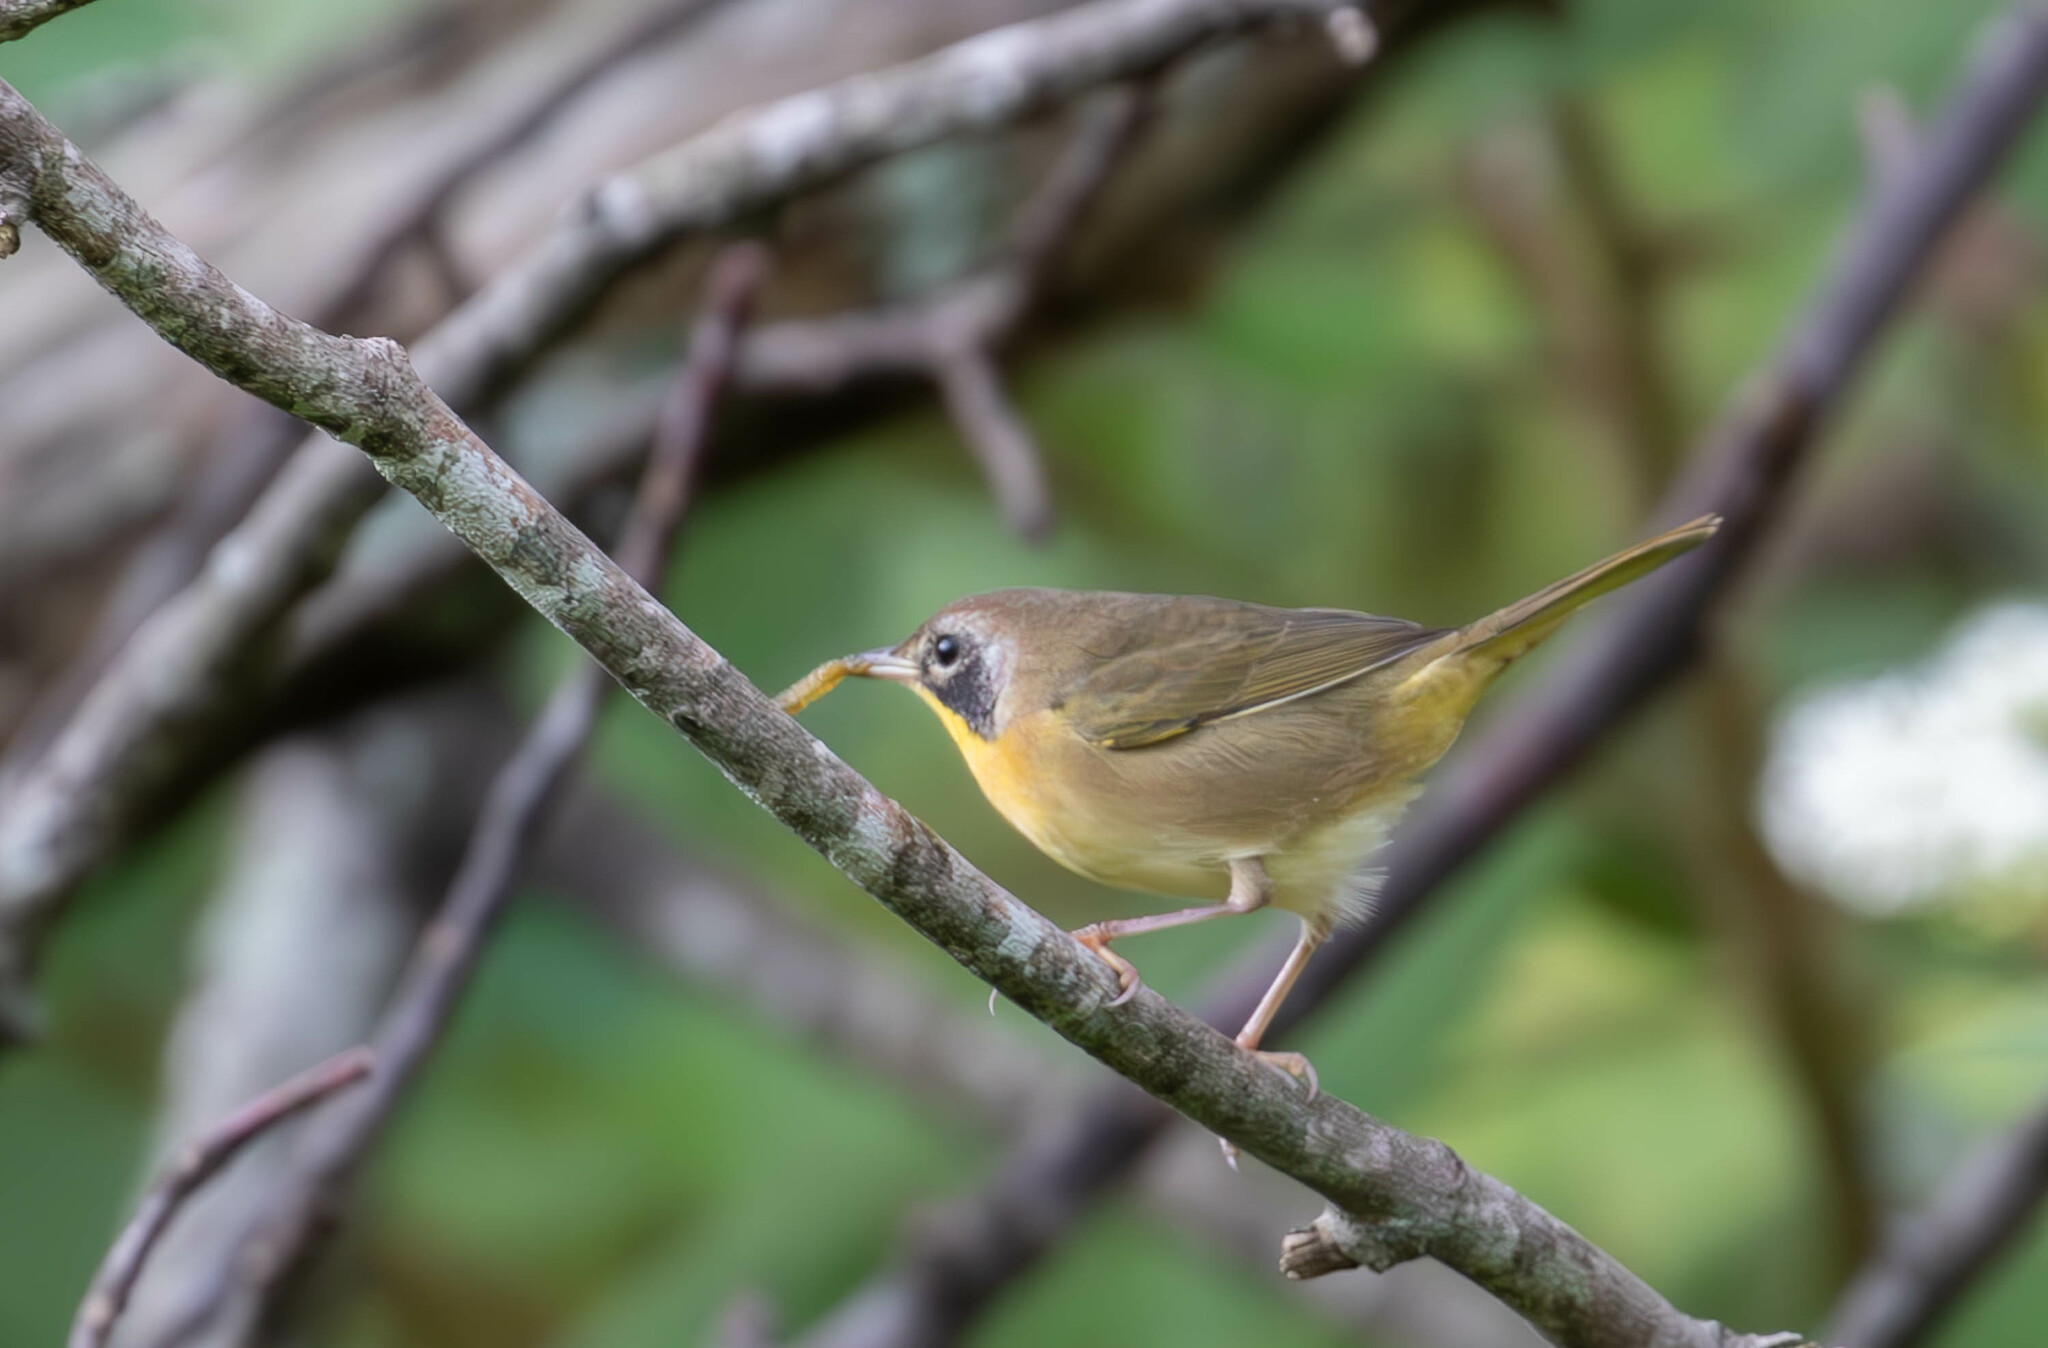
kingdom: Animalia
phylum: Chordata
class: Aves
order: Passeriformes
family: Parulidae
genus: Geothlypis
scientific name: Geothlypis trichas
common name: Common yellowthroat
